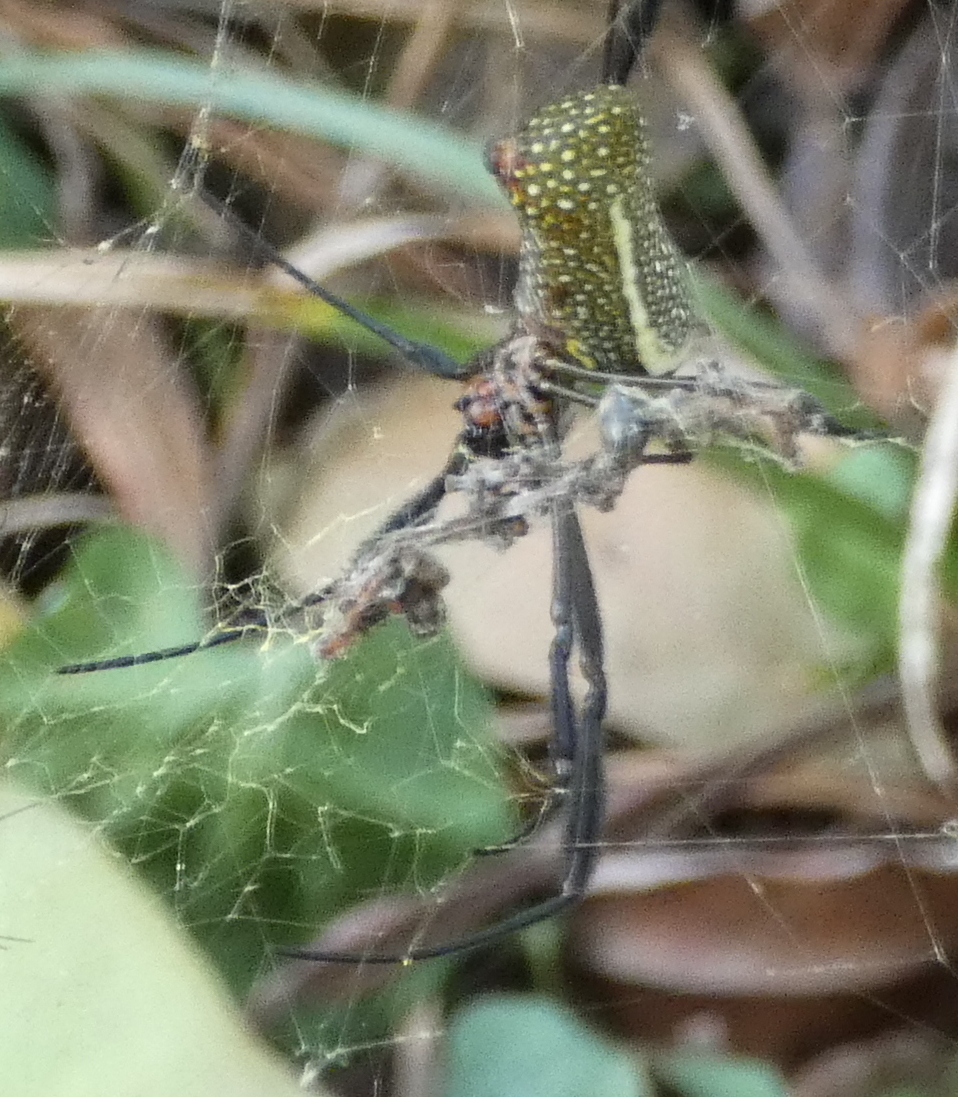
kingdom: Animalia
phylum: Arthropoda
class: Arachnida
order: Araneae
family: Araneidae
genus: Trichonephila
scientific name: Trichonephila clavipes
